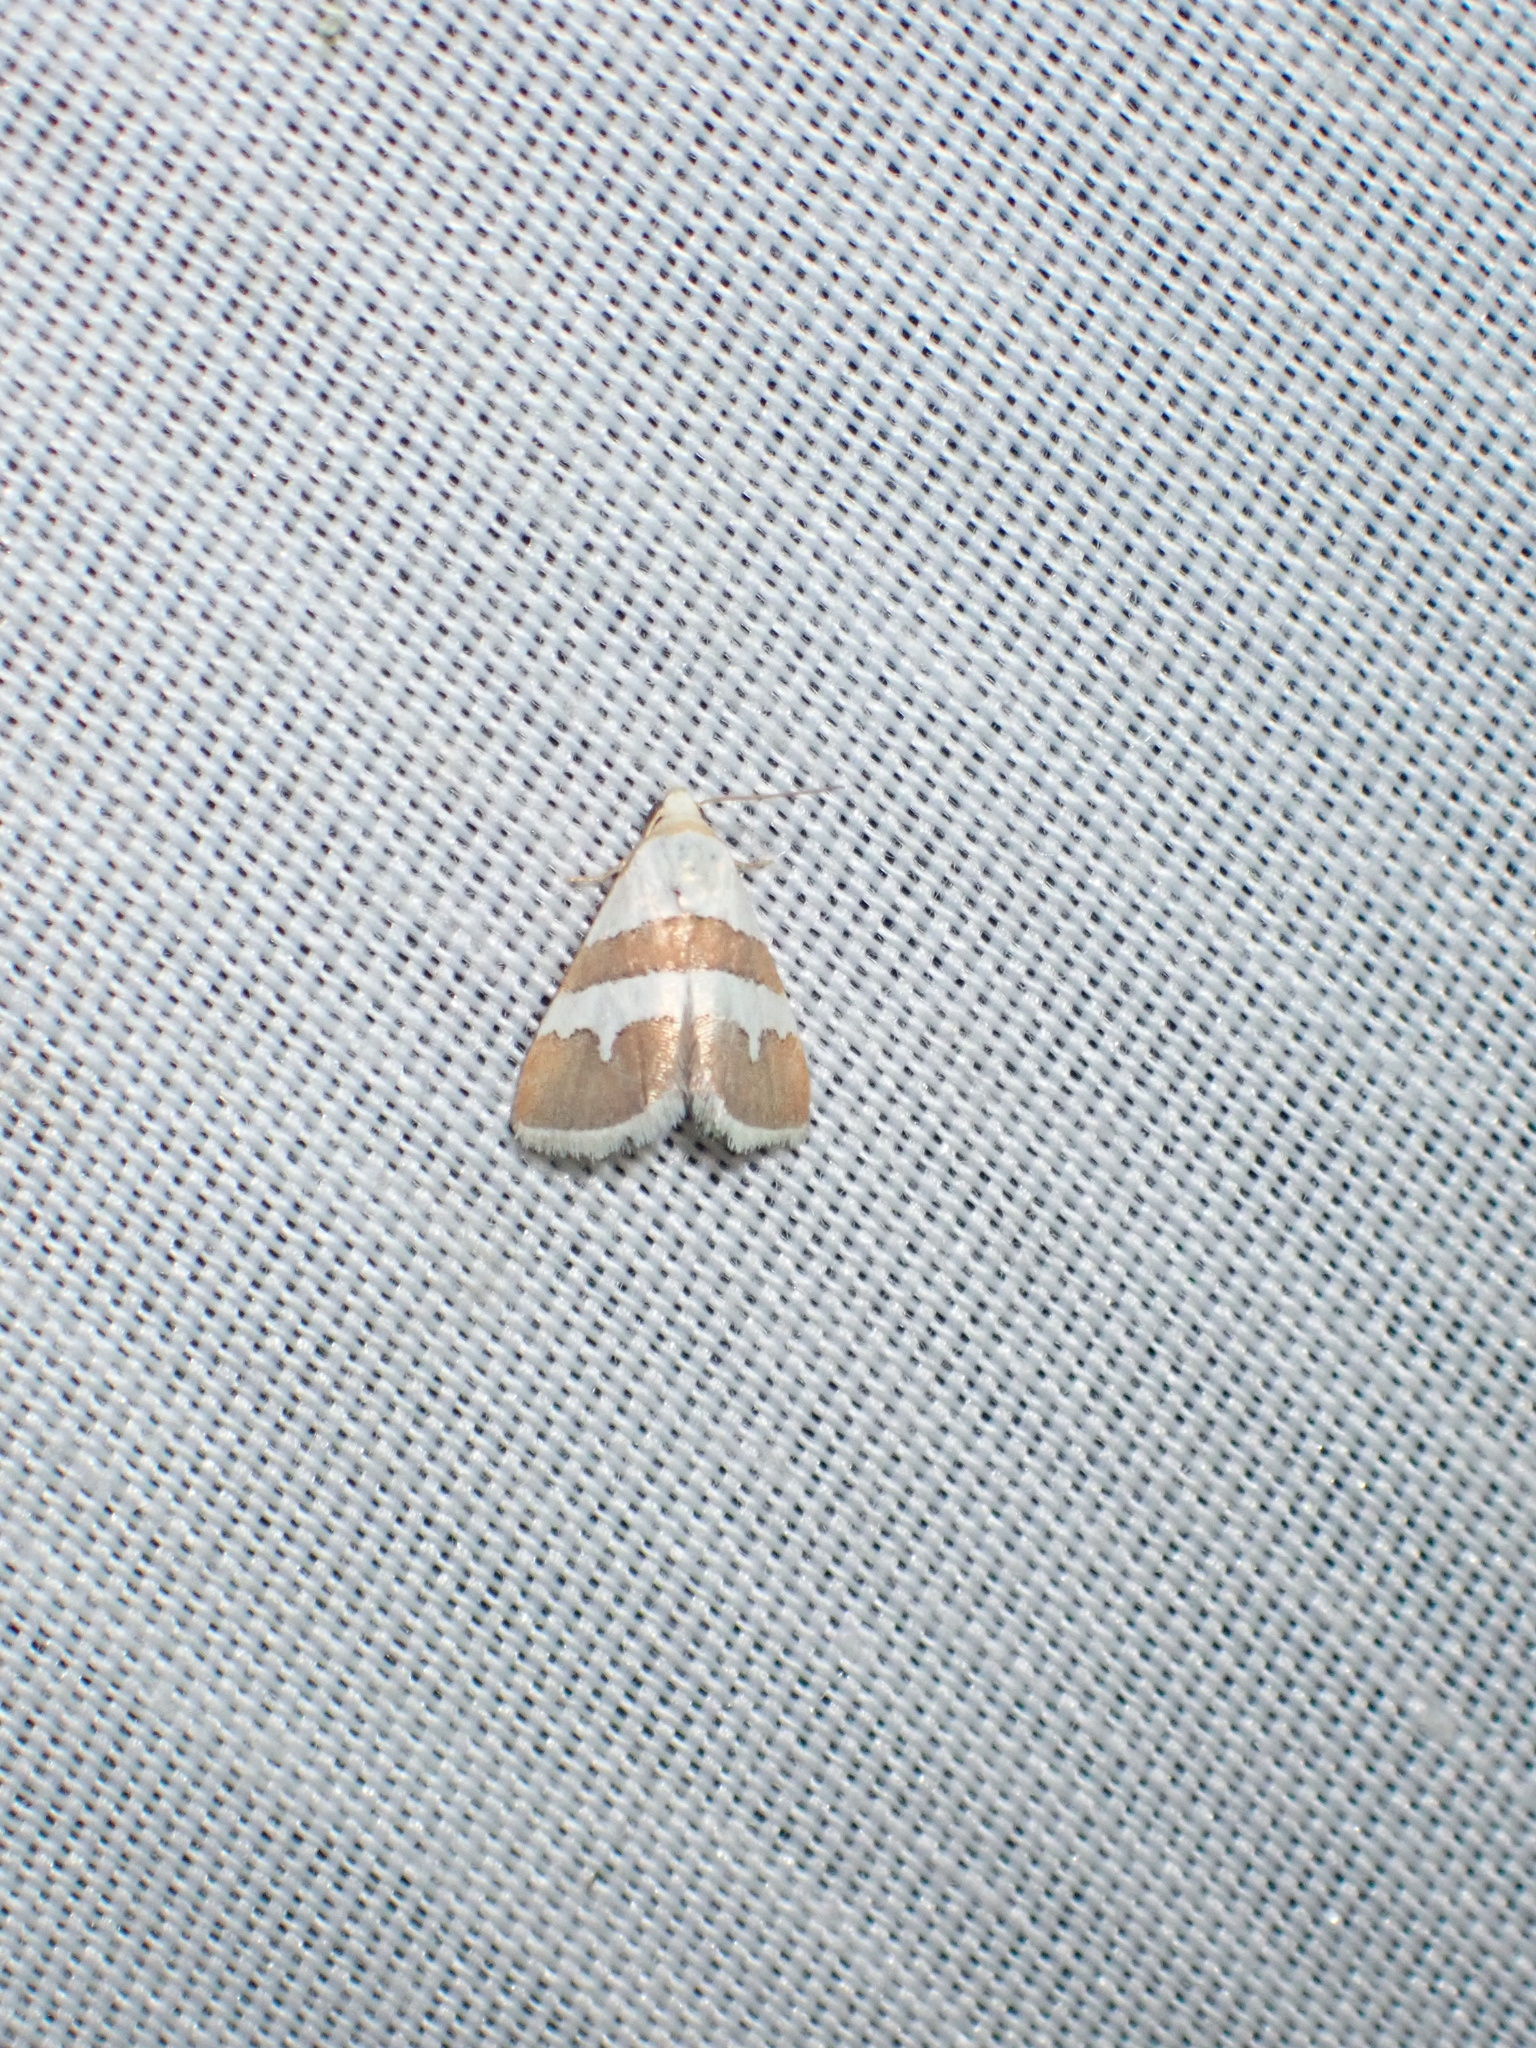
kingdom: Animalia
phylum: Arthropoda
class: Insecta
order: Lepidoptera
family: Noctuidae
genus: Eublemma
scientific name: Eublemma alexi
